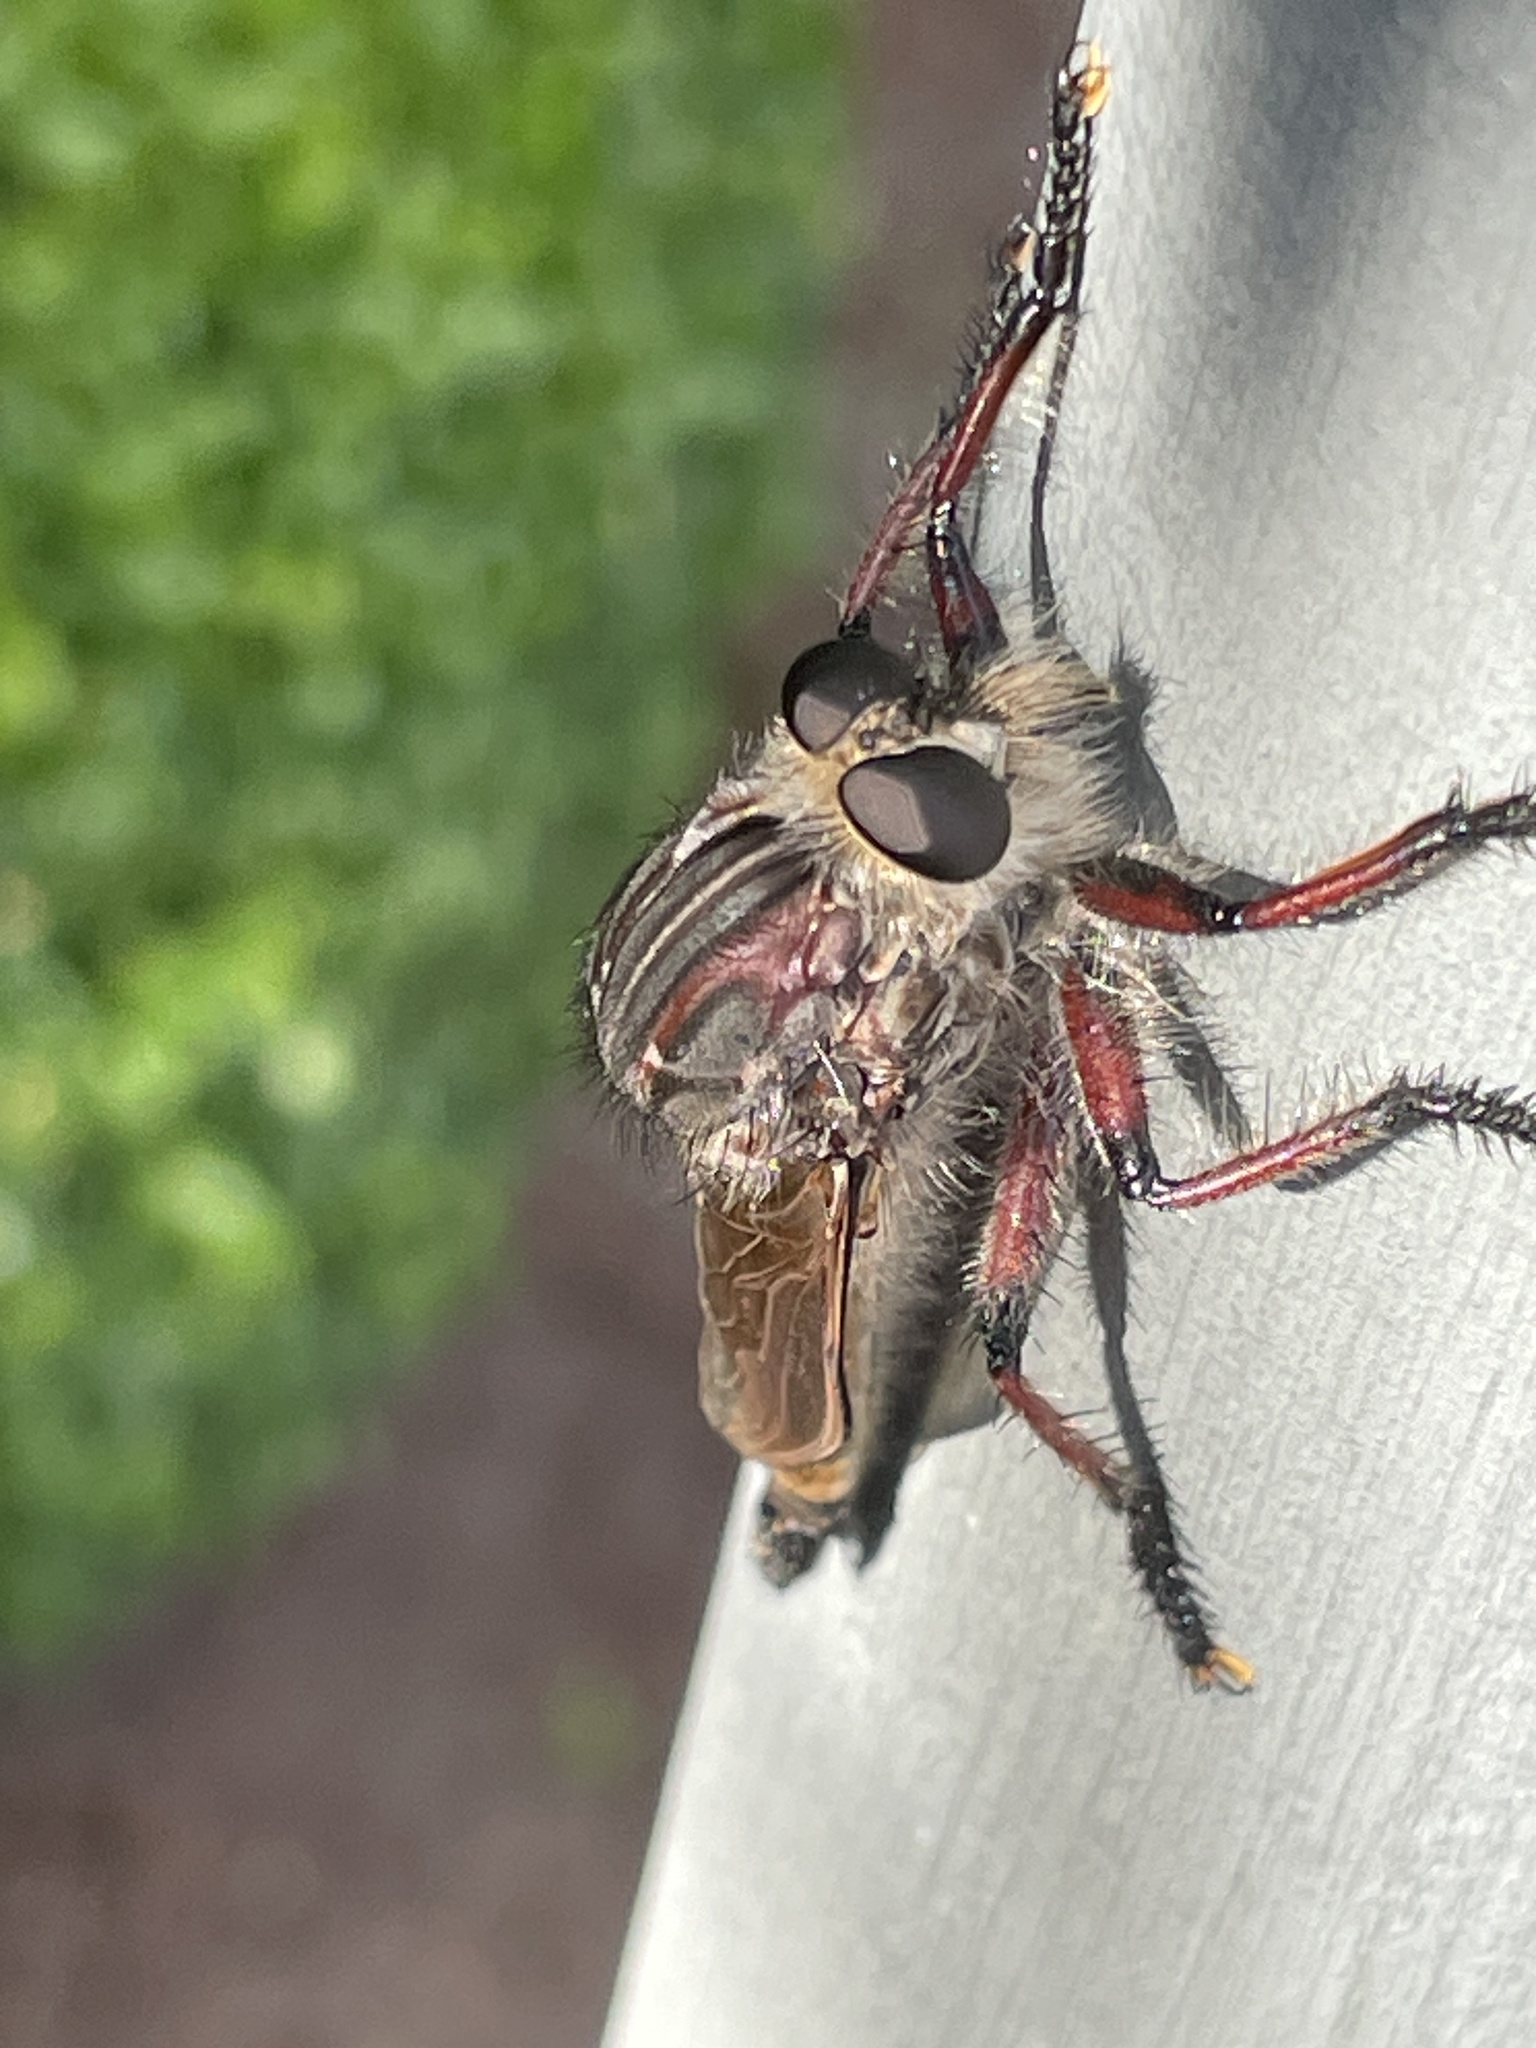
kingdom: Animalia
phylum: Arthropoda
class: Insecta
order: Diptera
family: Asilidae
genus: Neoaratus
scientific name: Neoaratus hercules
